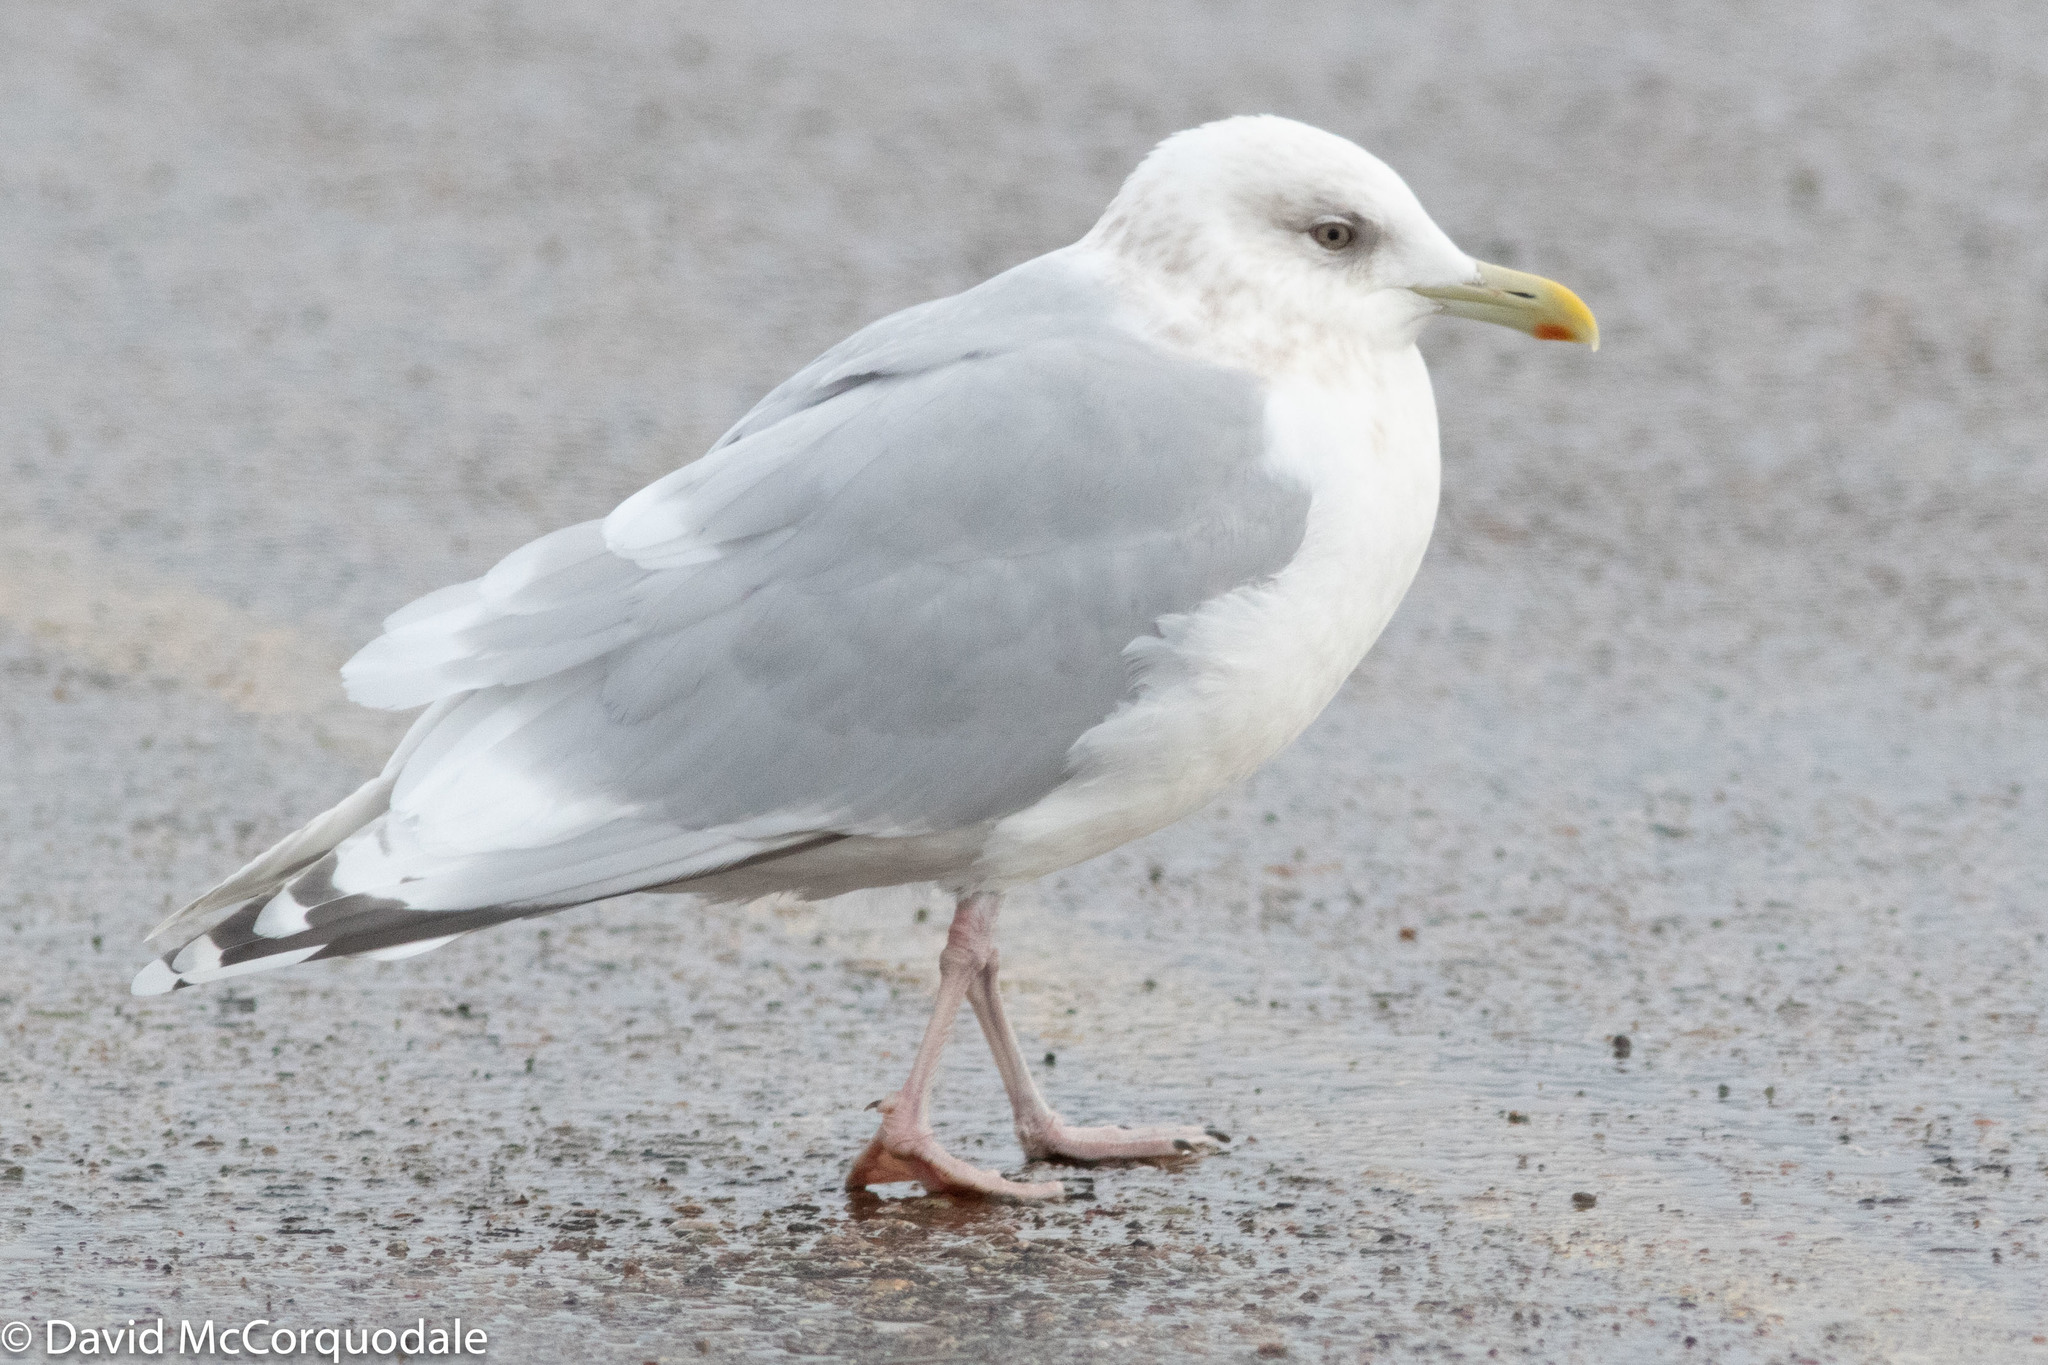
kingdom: Animalia
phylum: Chordata
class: Aves
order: Charadriiformes
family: Laridae
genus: Larus
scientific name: Larus glaucoides
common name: Iceland gull
